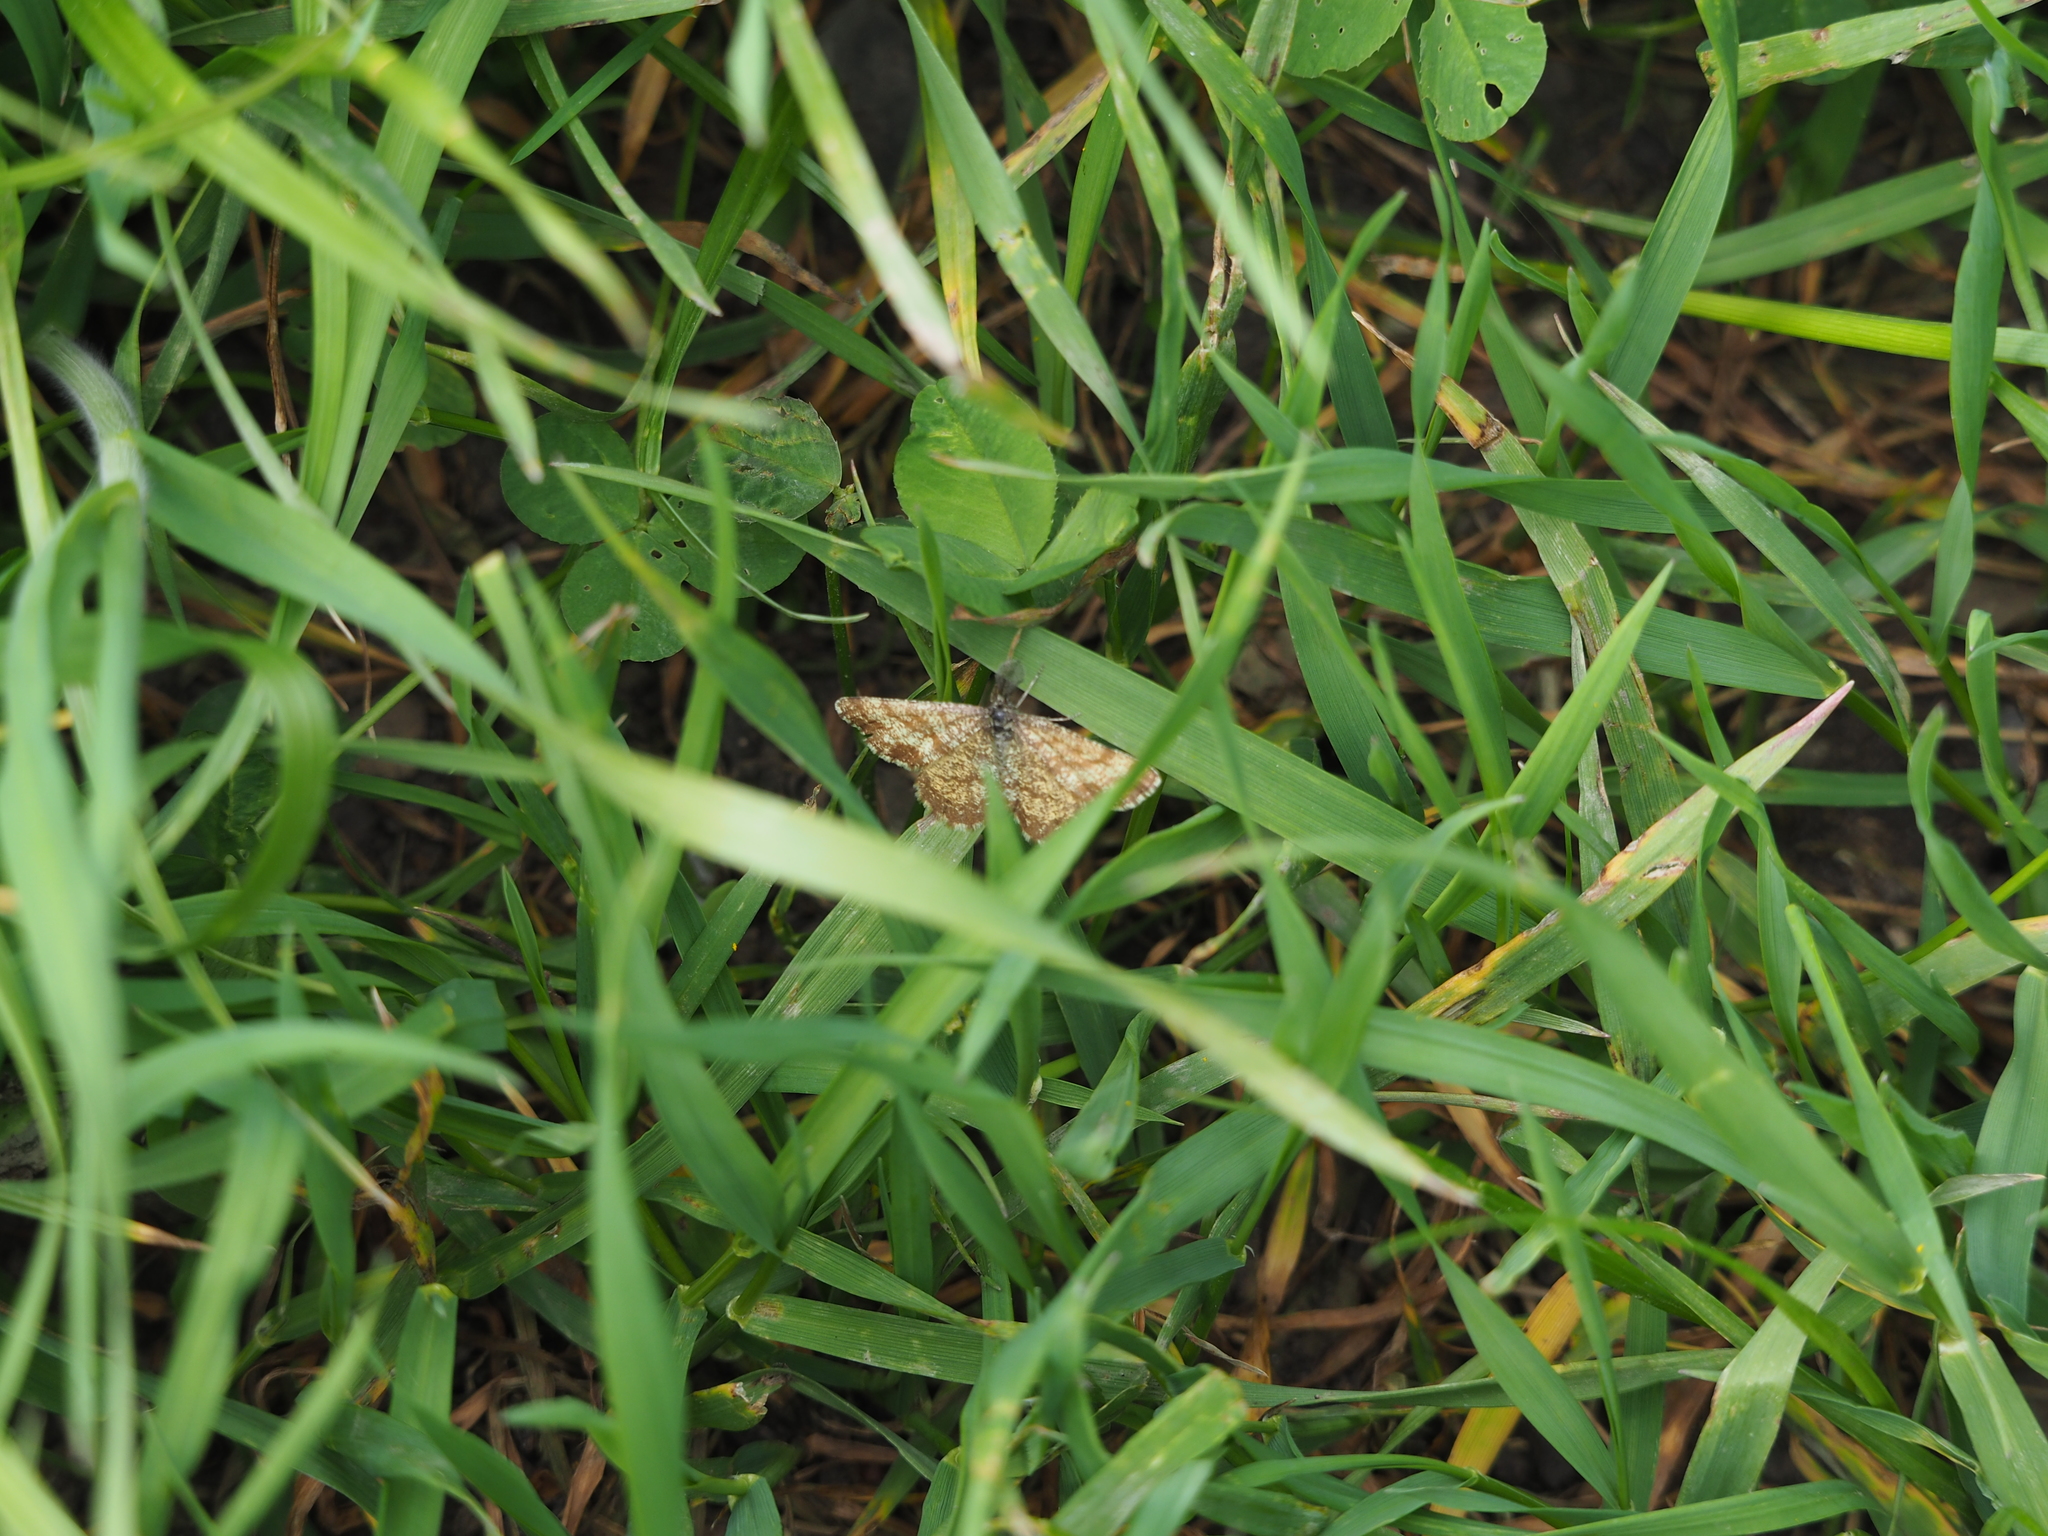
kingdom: Animalia
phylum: Arthropoda
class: Insecta
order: Lepidoptera
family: Geometridae
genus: Ematurga
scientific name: Ematurga atomaria
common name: Common heath
